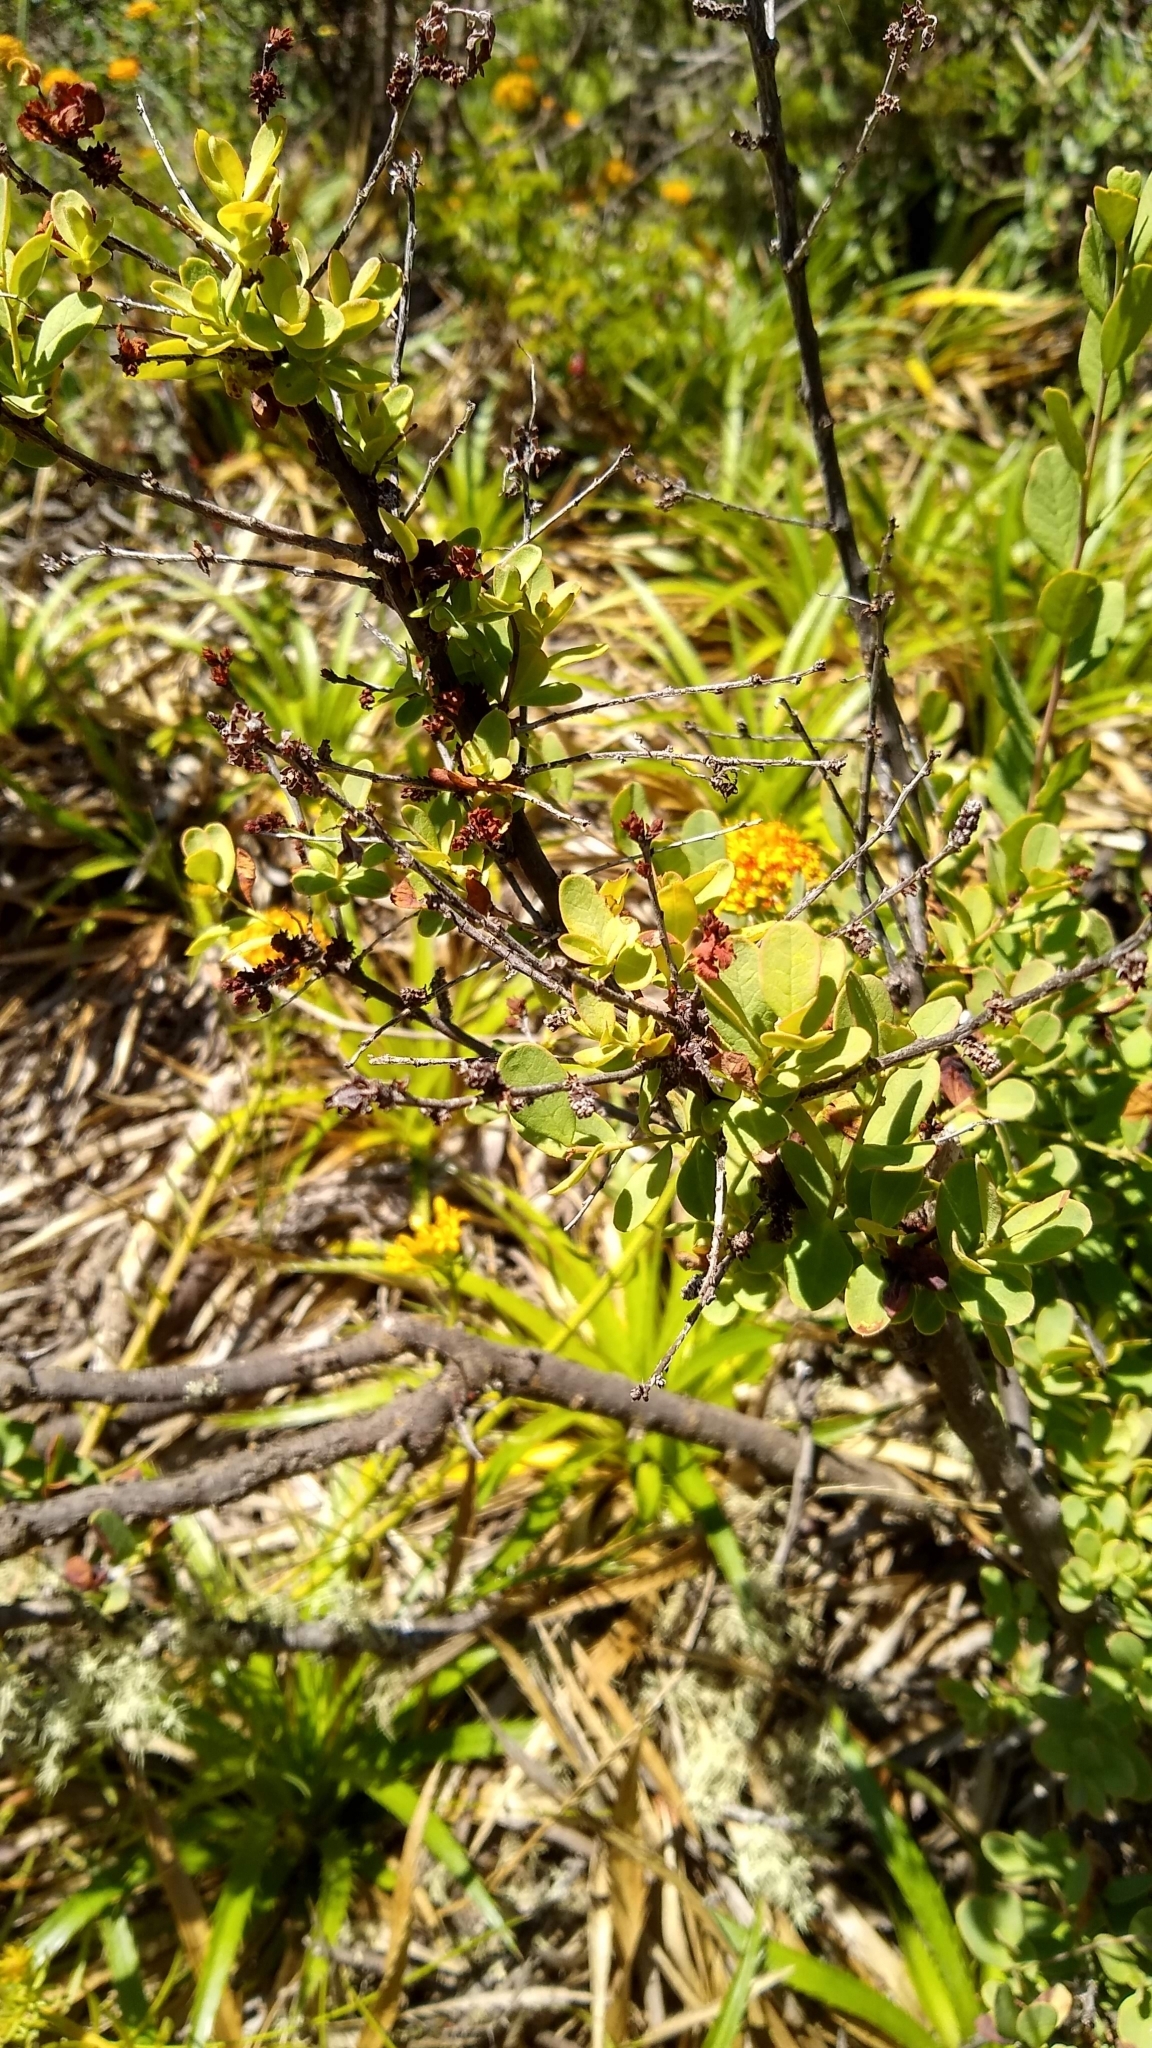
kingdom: Plantae
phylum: Tracheophyta
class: Magnoliopsida
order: Santalales
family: Schoepfiaceae
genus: Quinchamalium
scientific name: Quinchamalium chilense
